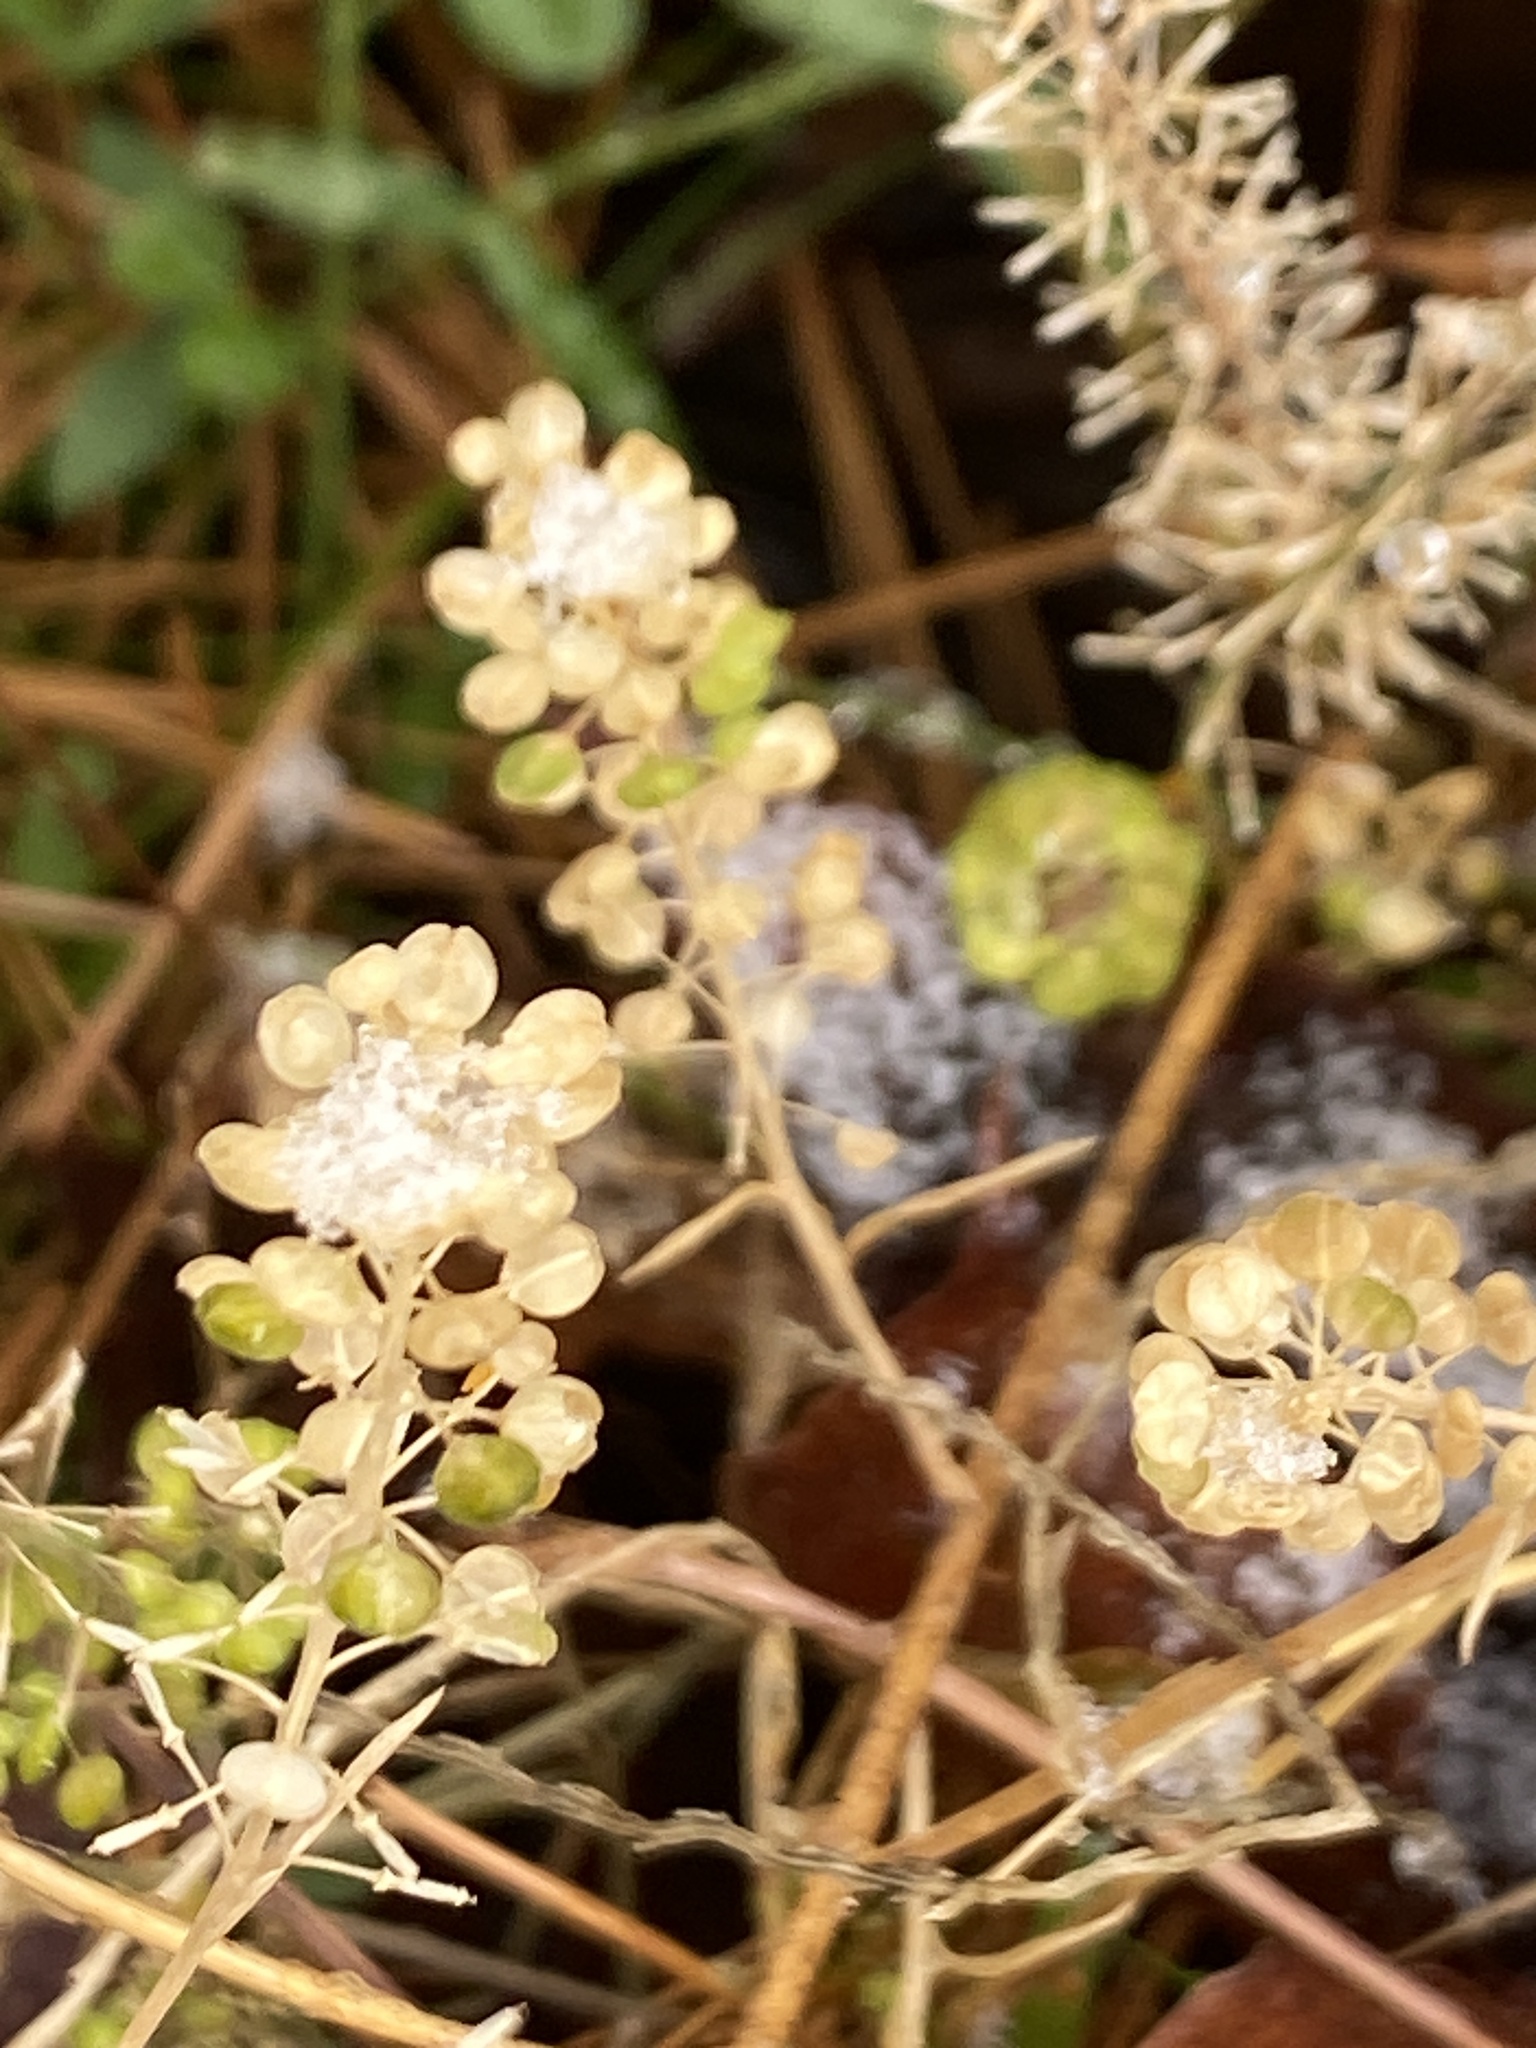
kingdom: Plantae
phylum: Tracheophyta
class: Magnoliopsida
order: Brassicales
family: Brassicaceae
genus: Lepidium
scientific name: Lepidium virginicum
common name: Least pepperwort
